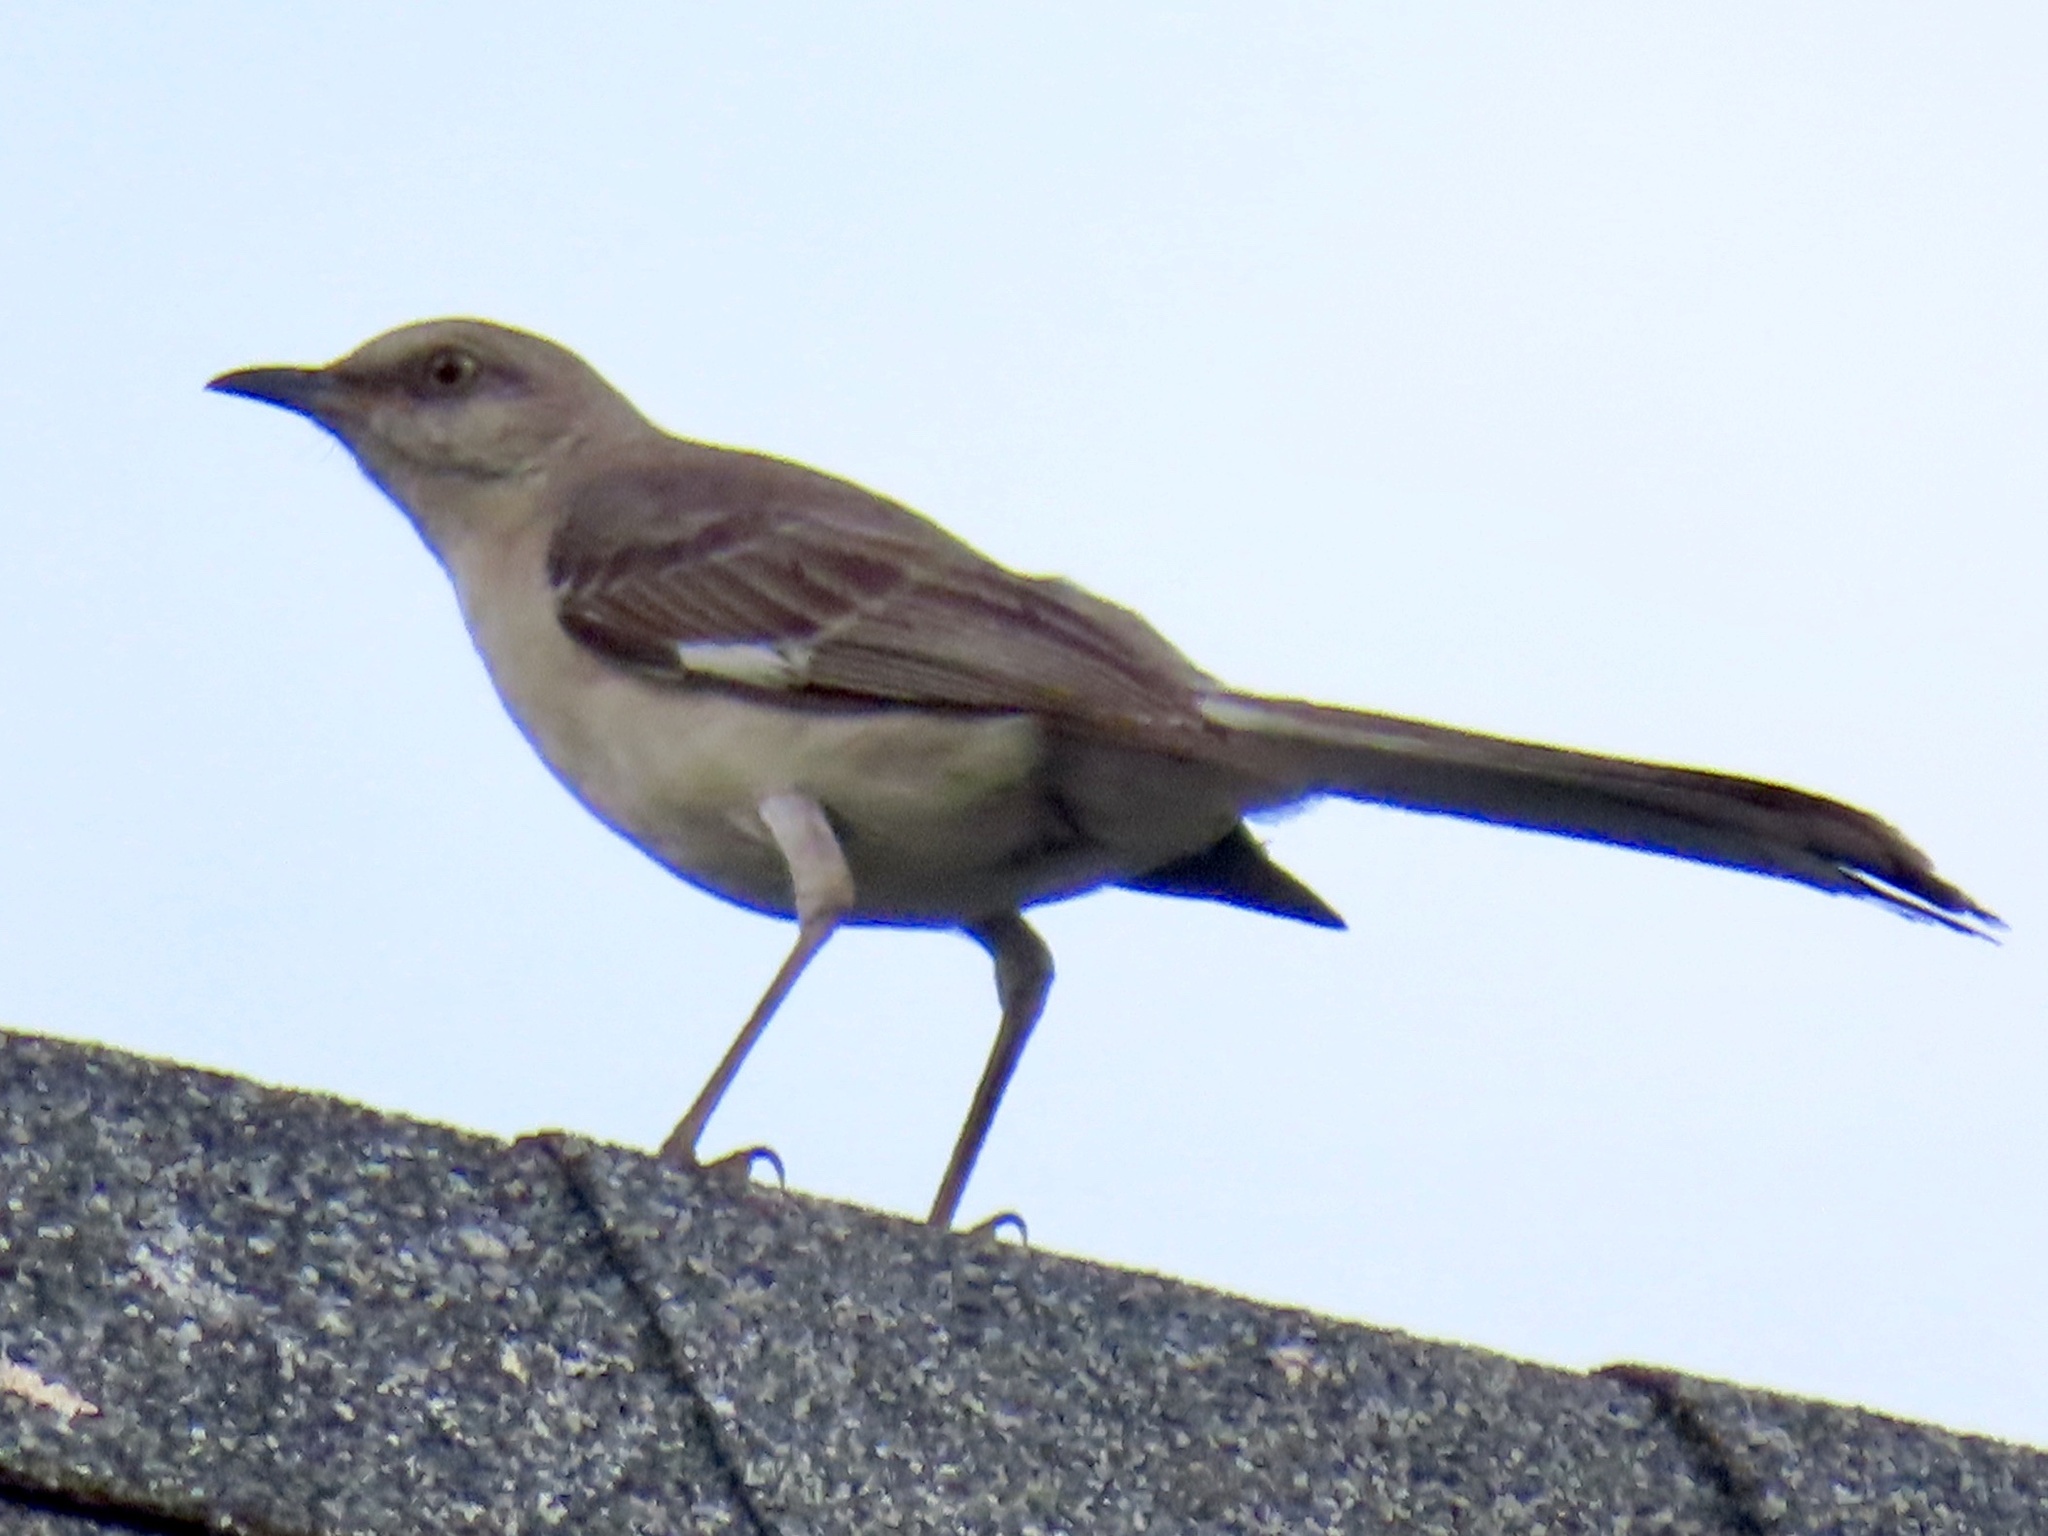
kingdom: Animalia
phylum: Chordata
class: Aves
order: Passeriformes
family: Mimidae
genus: Mimus
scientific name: Mimus polyglottos
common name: Northern mockingbird
